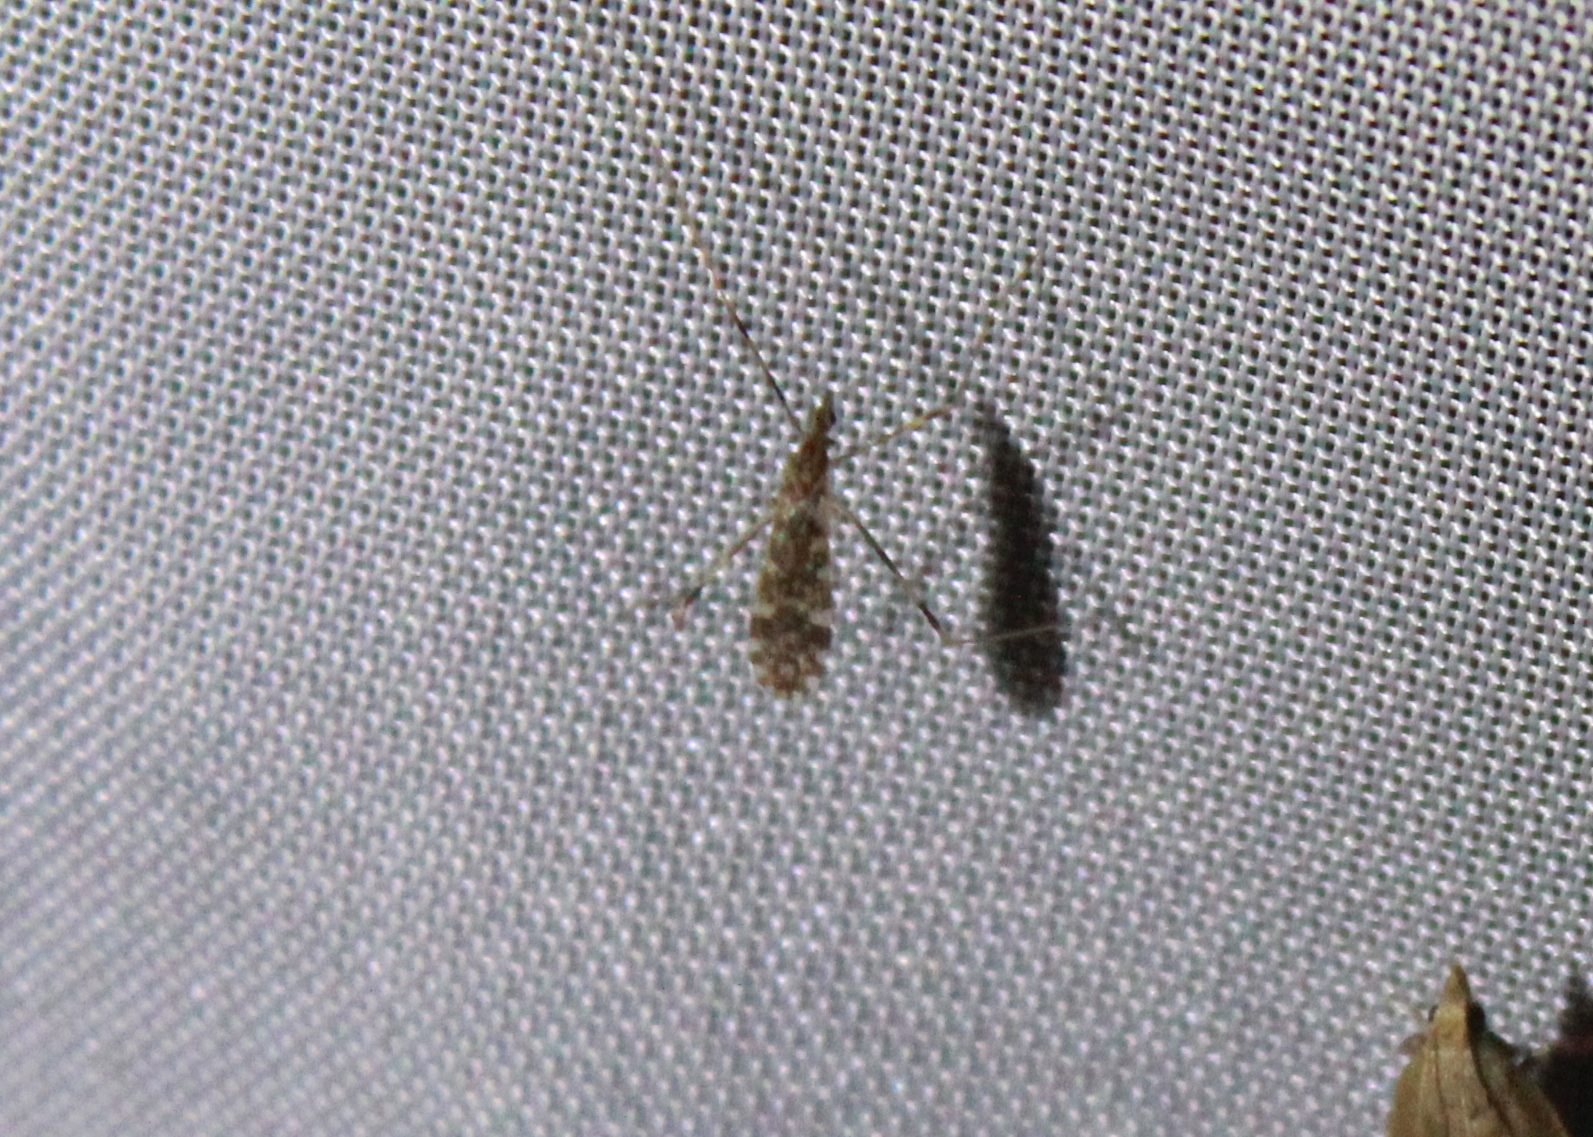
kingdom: Animalia
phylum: Arthropoda
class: Insecta
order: Diptera
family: Limoniidae
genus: Erioptera
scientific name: Erioptera caliptera
